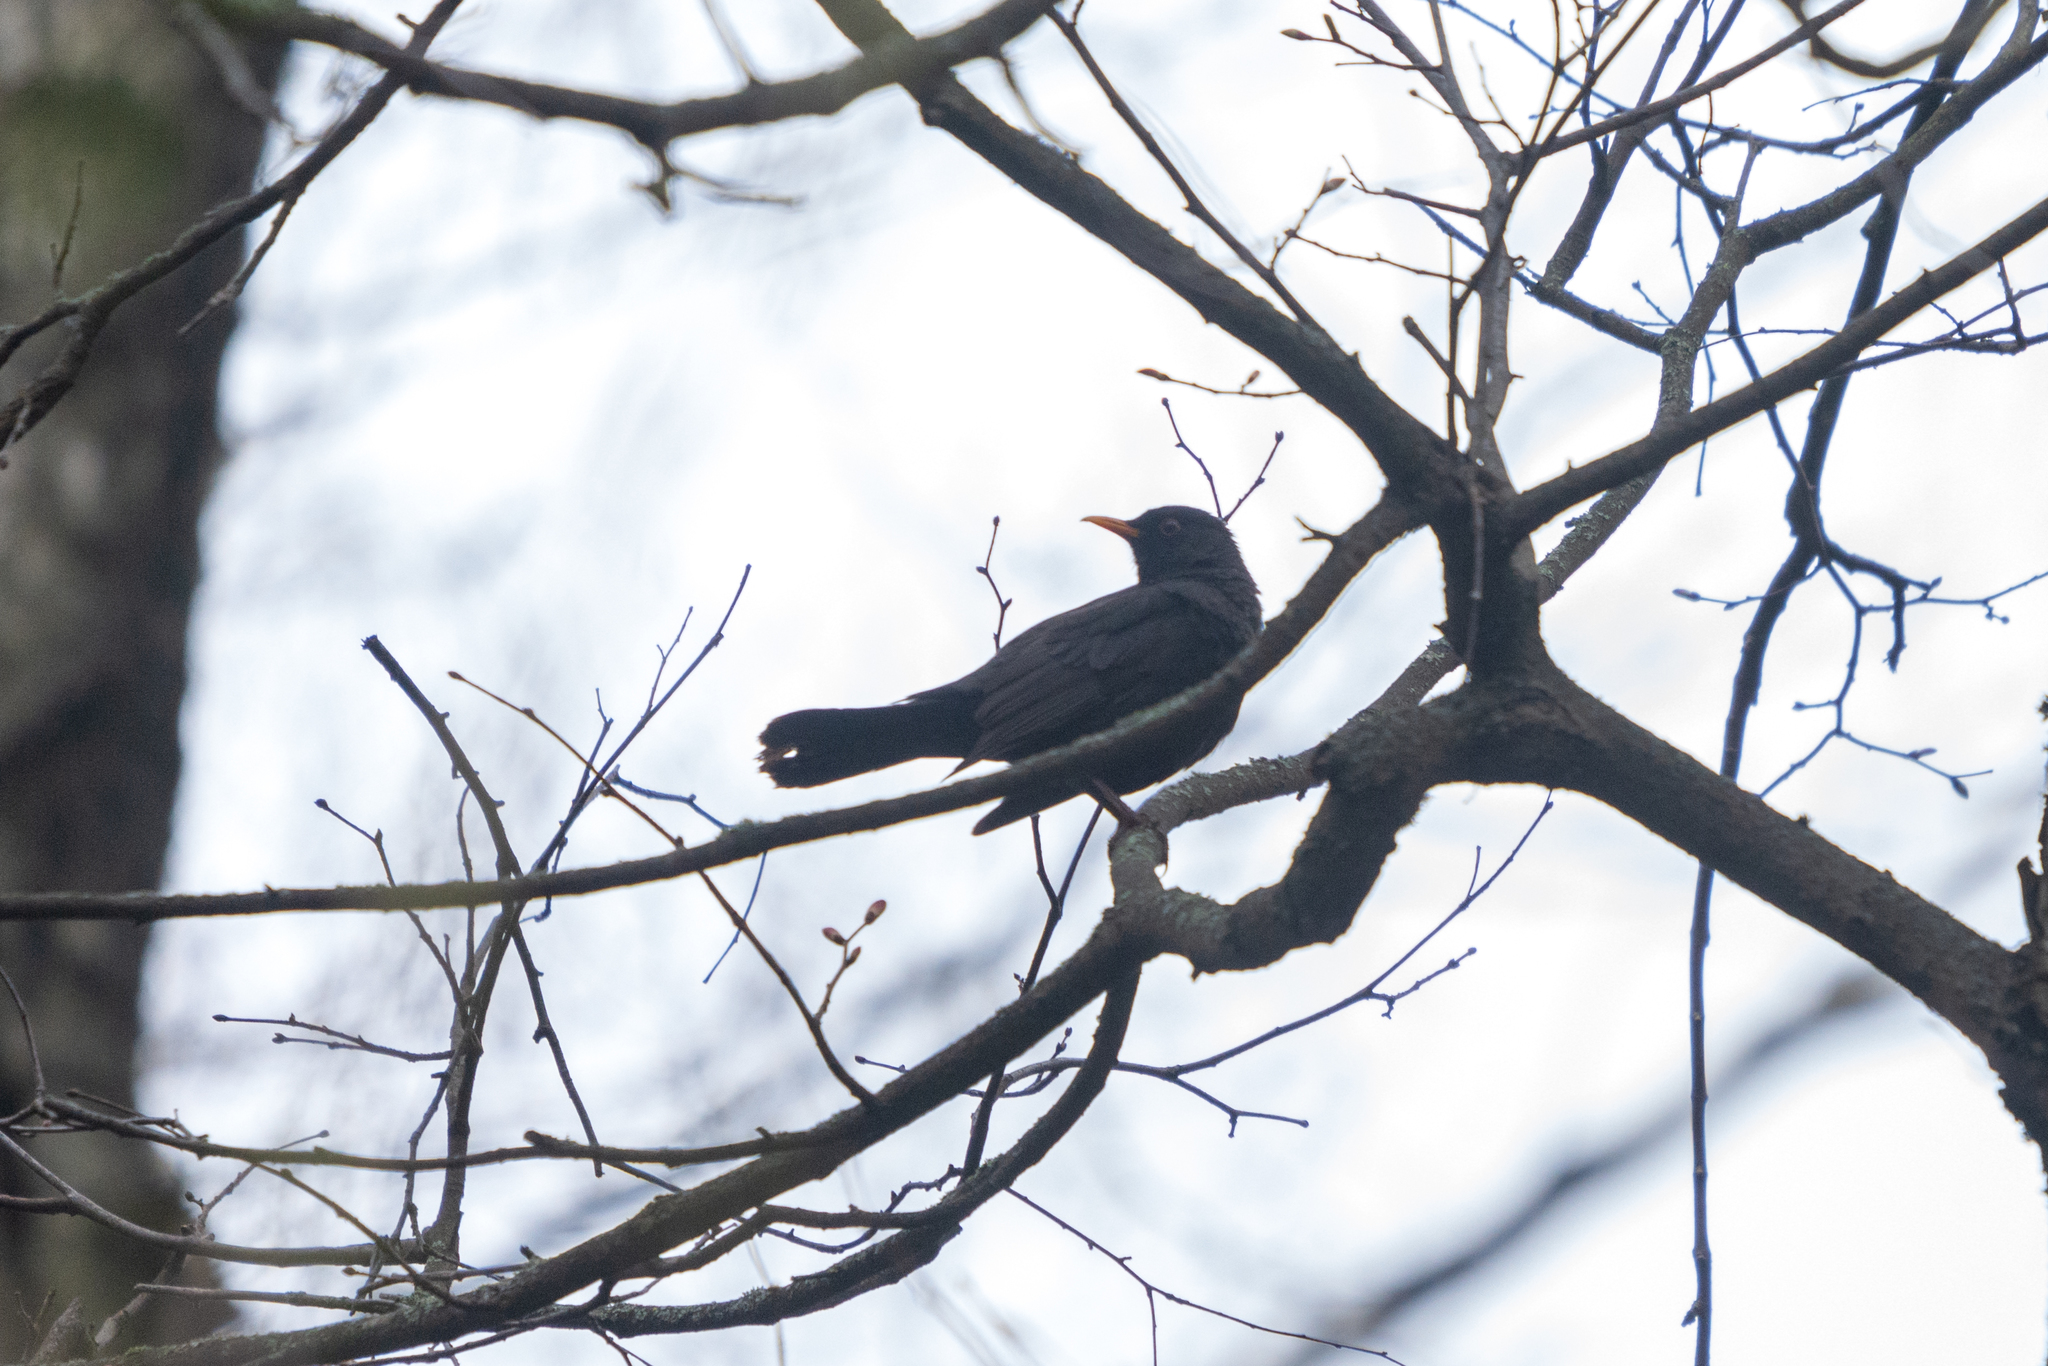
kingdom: Animalia
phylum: Chordata
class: Aves
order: Passeriformes
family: Turdidae
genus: Turdus
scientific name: Turdus merula
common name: Common blackbird
